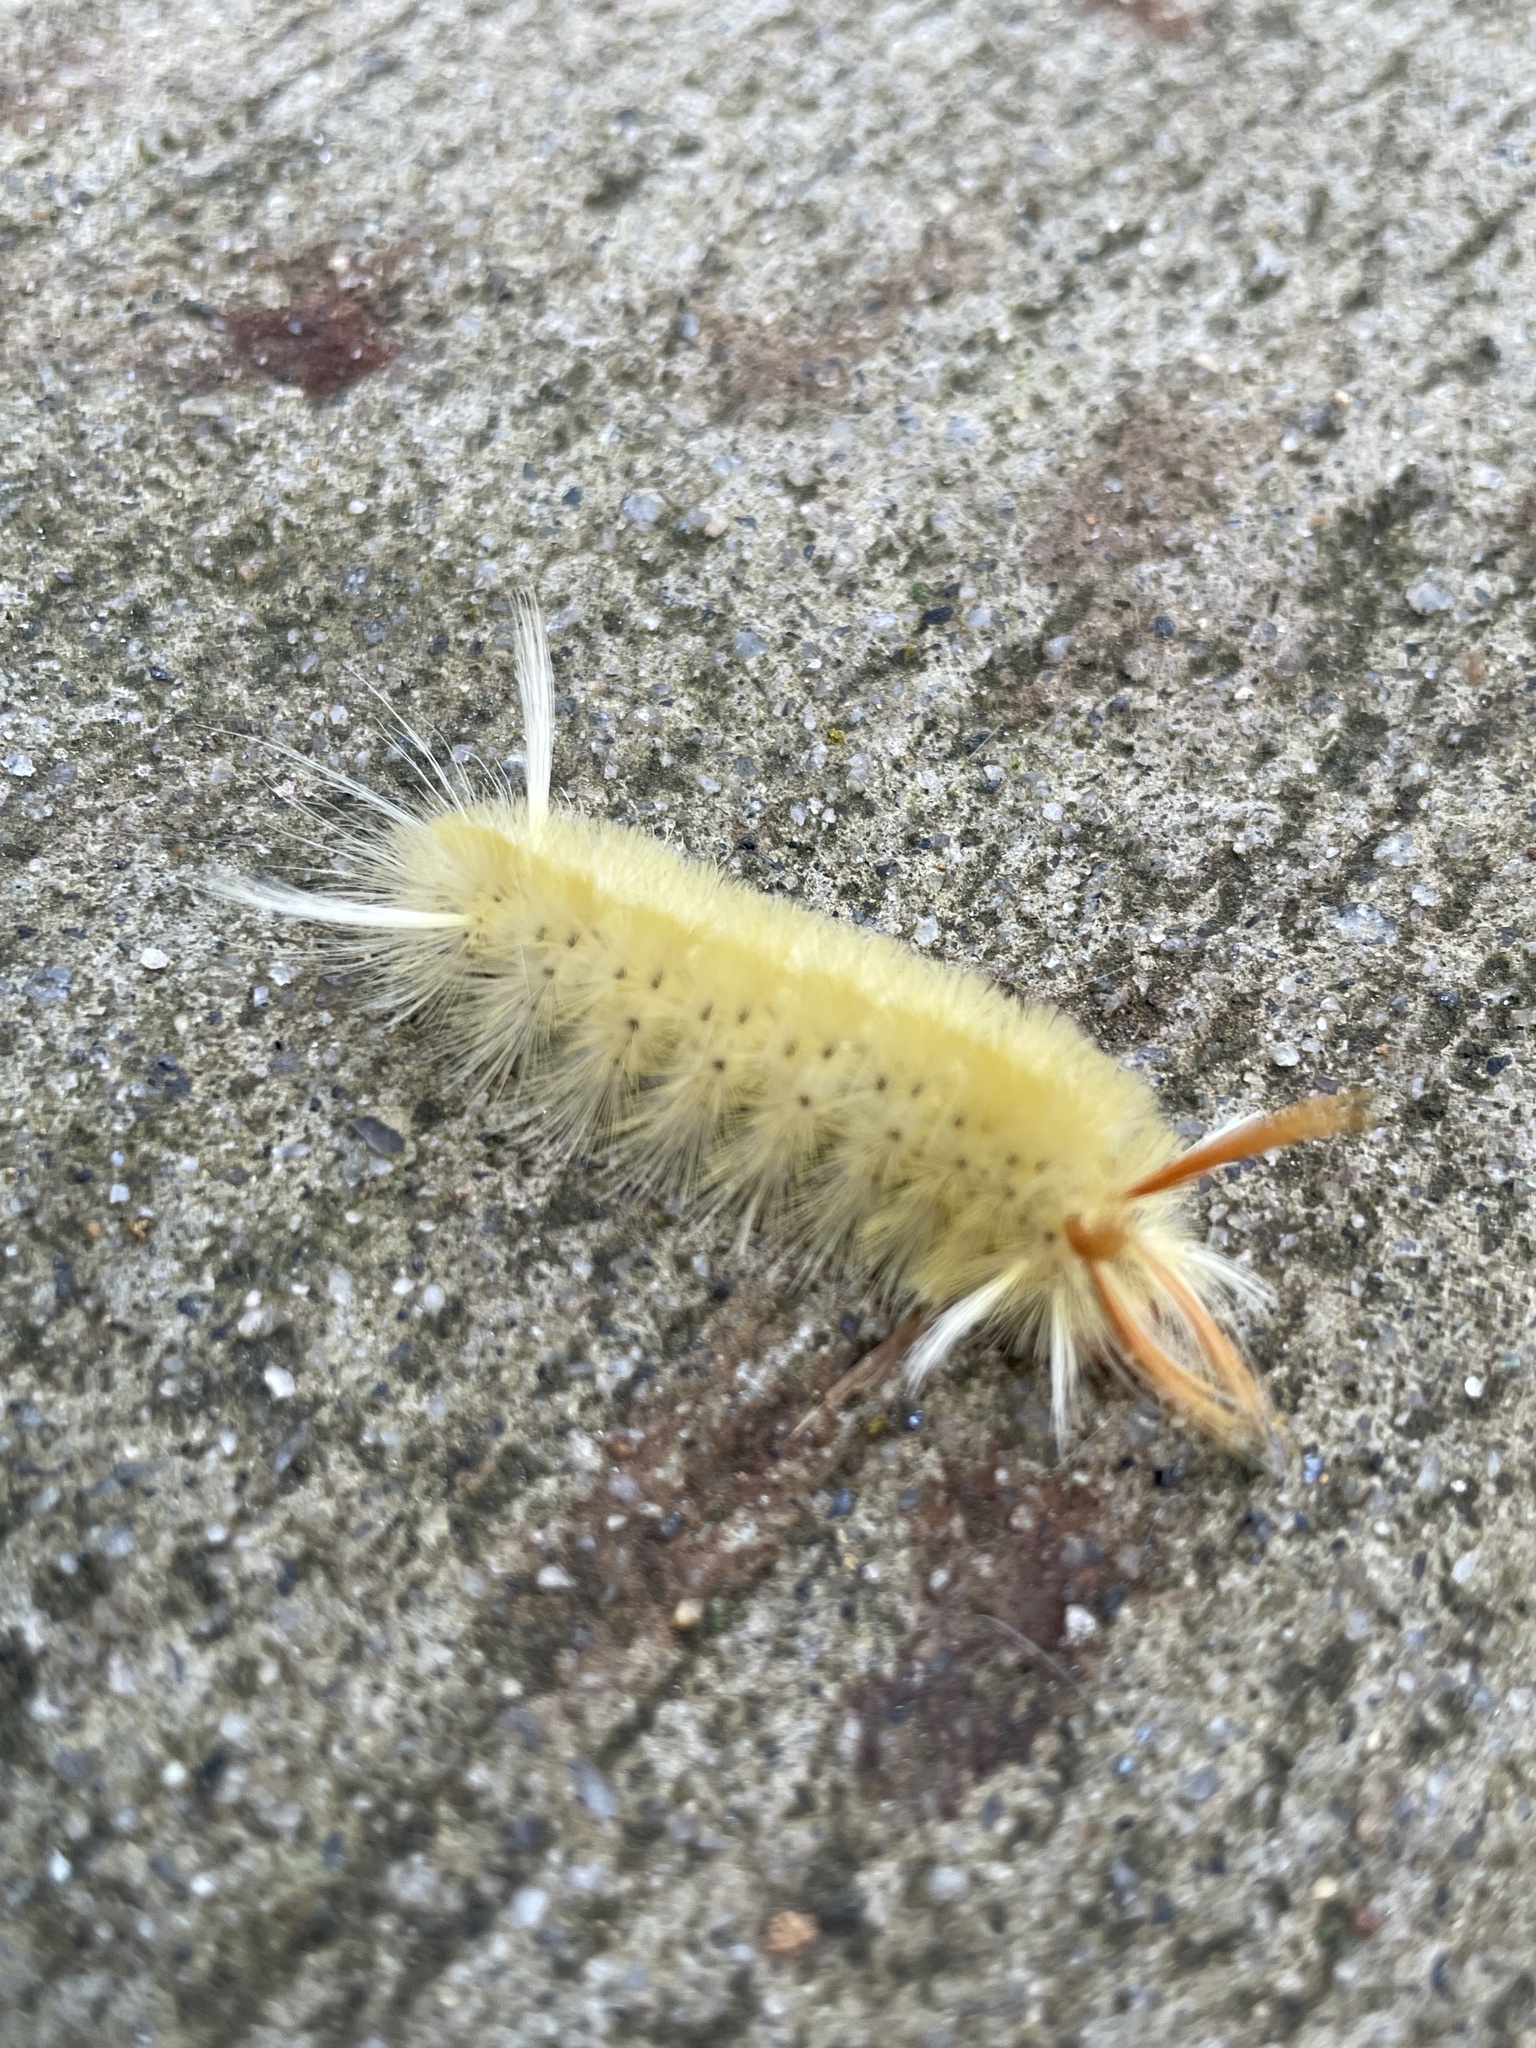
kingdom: Animalia
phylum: Arthropoda
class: Insecta
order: Lepidoptera
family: Erebidae
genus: Halysidota
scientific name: Halysidota harrisii
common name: Sycamore tussock moth
